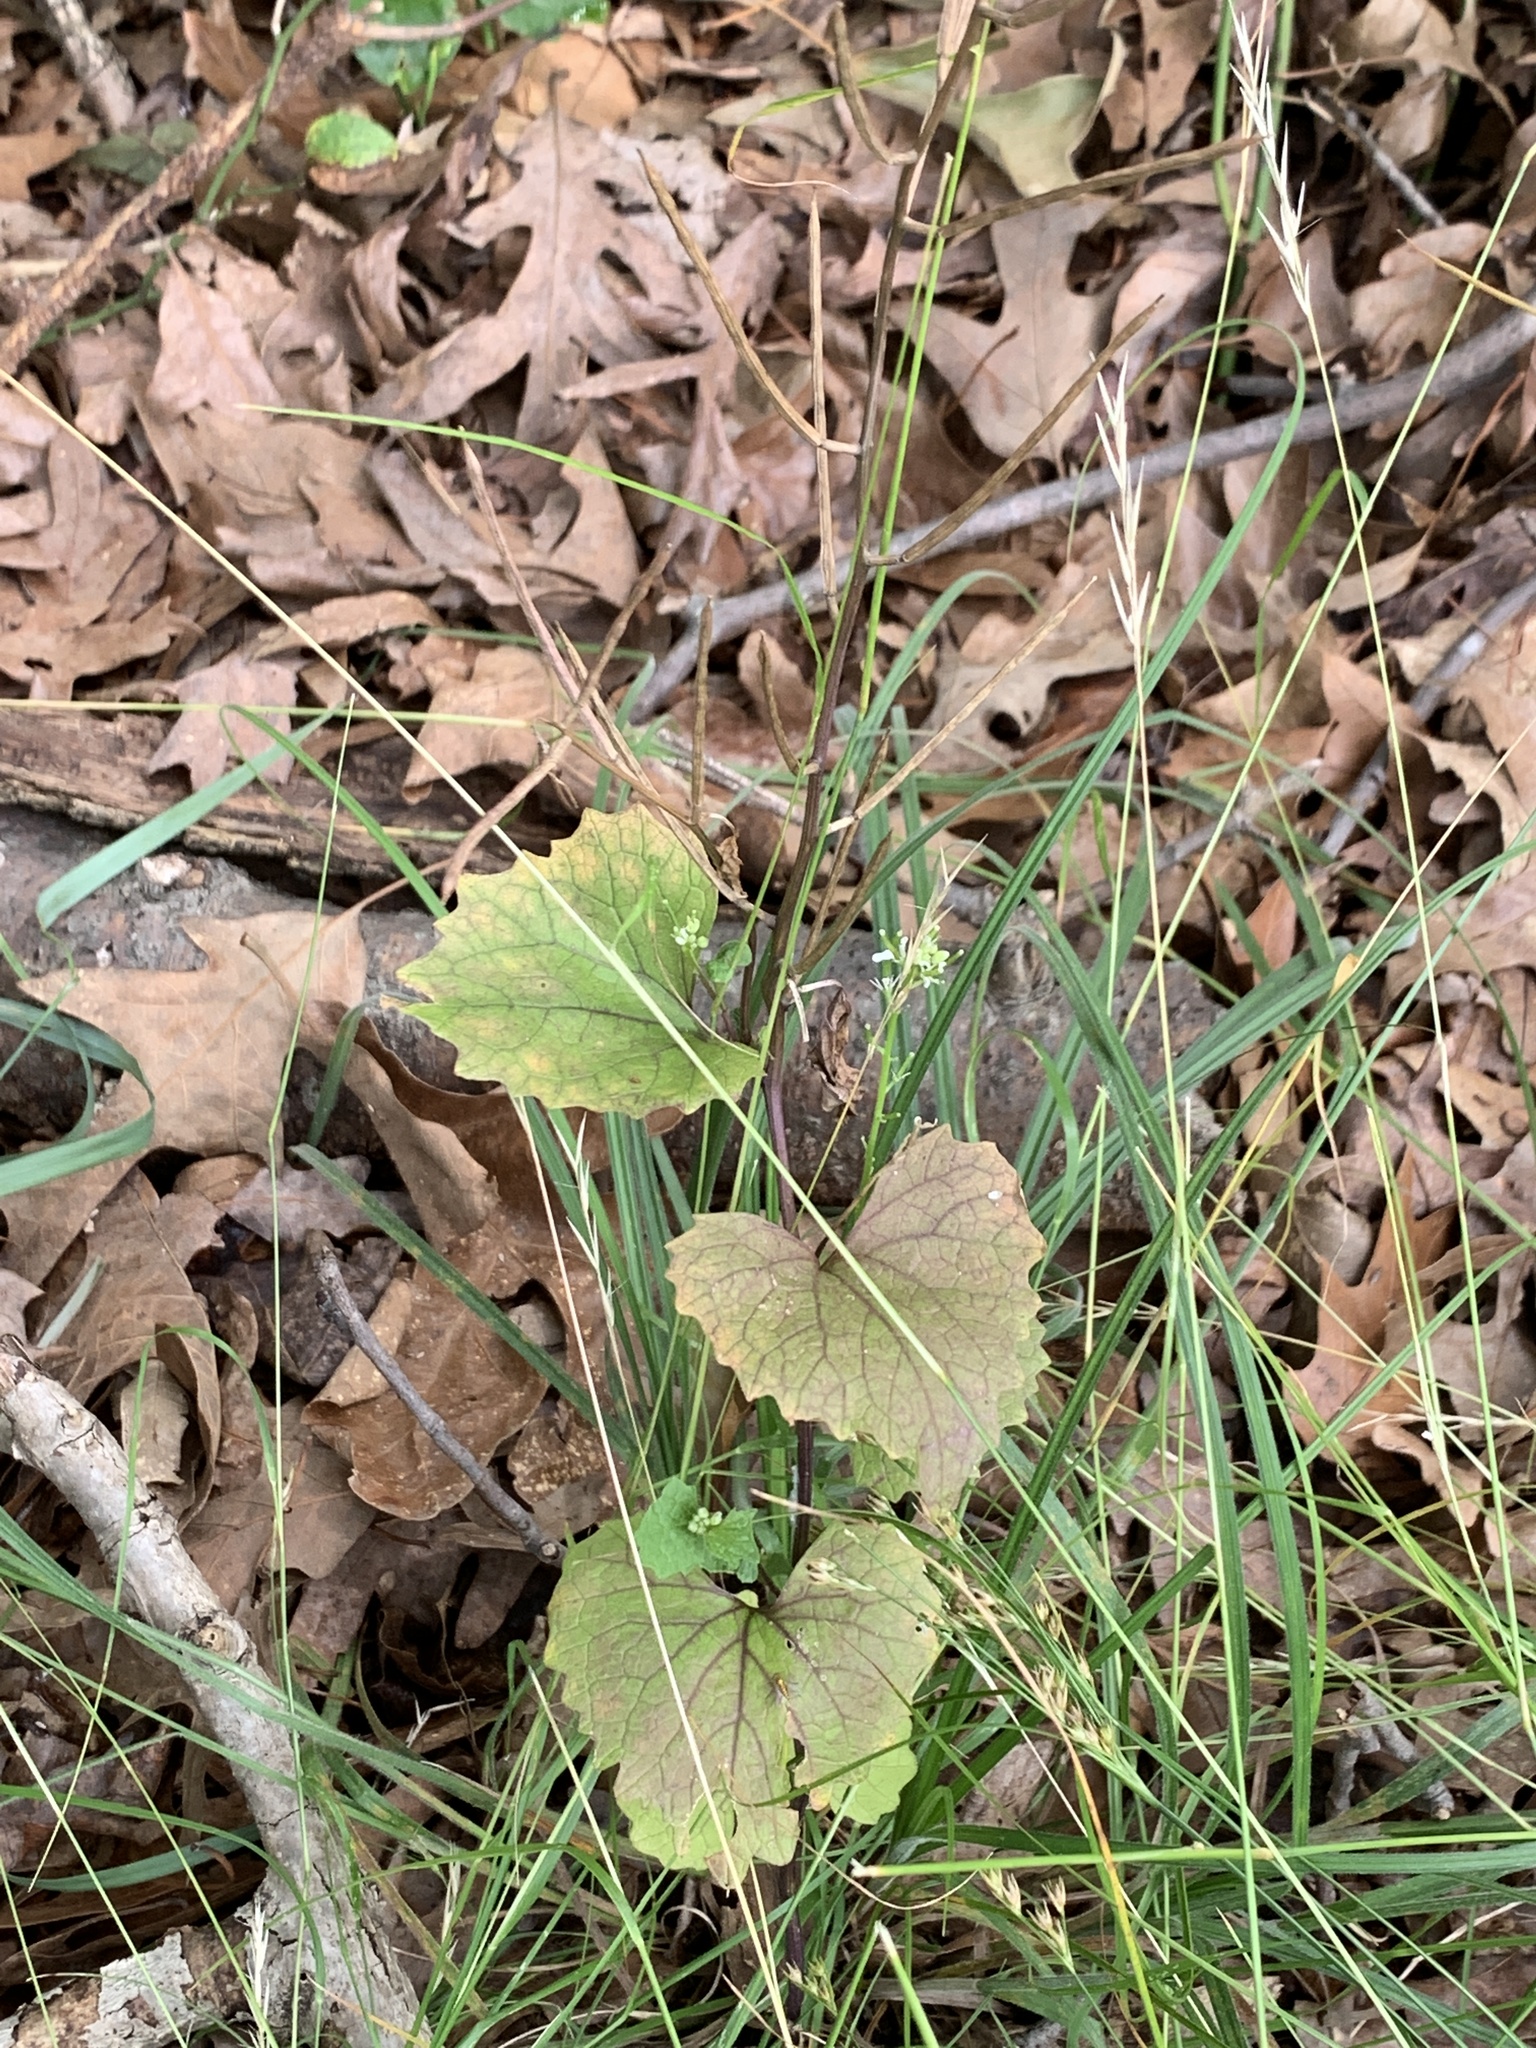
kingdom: Plantae
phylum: Tracheophyta
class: Magnoliopsida
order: Brassicales
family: Brassicaceae
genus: Alliaria
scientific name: Alliaria petiolata
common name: Garlic mustard
